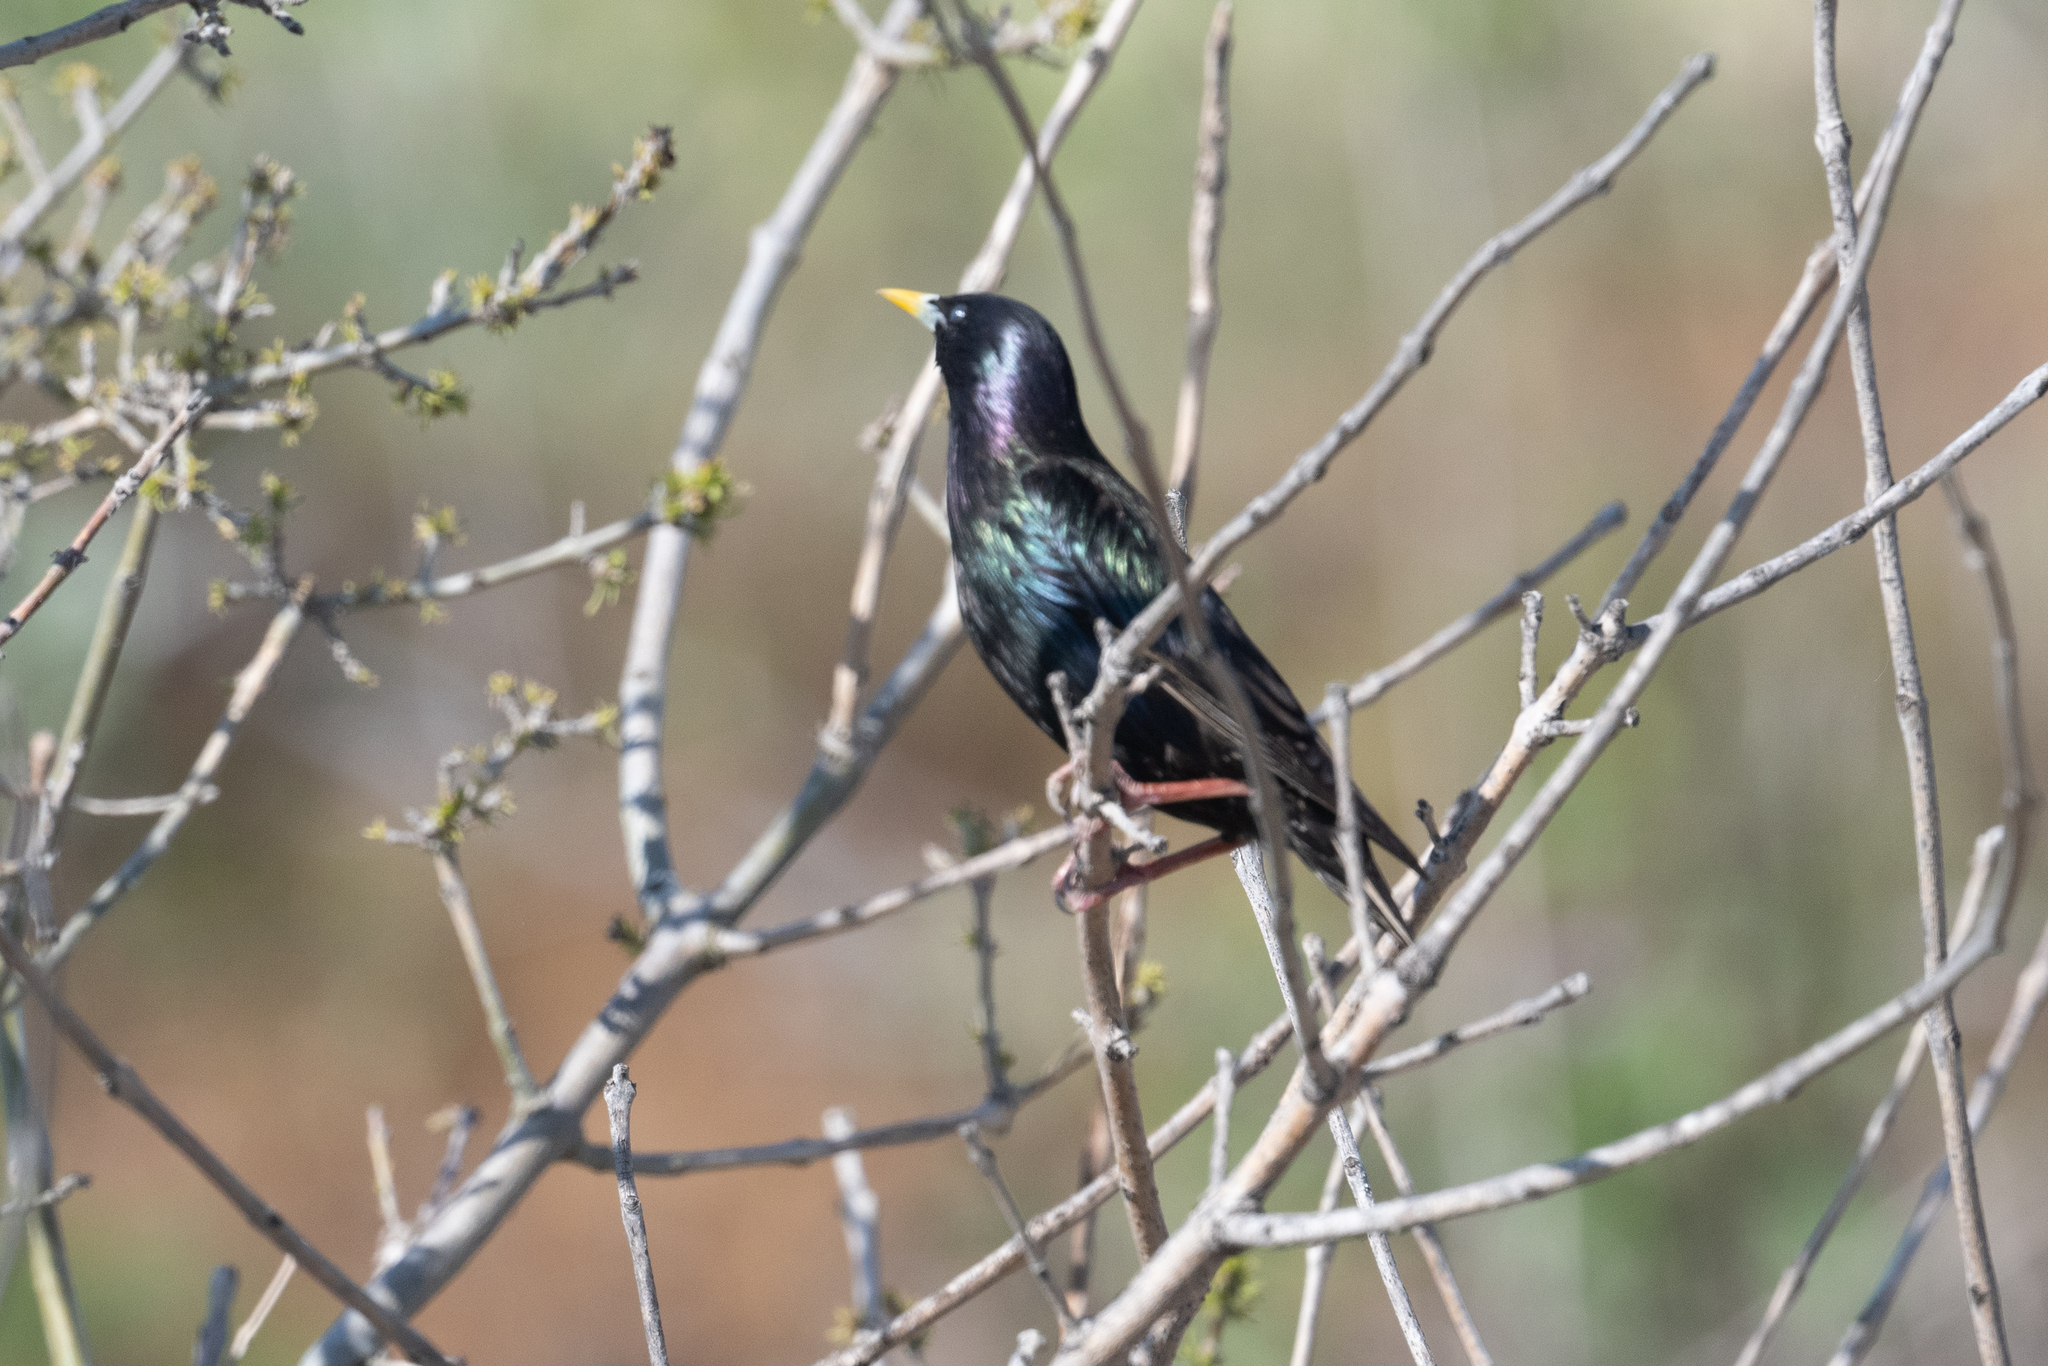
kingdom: Animalia
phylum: Chordata
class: Aves
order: Passeriformes
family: Sturnidae
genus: Sturnus
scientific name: Sturnus vulgaris
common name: Common starling
